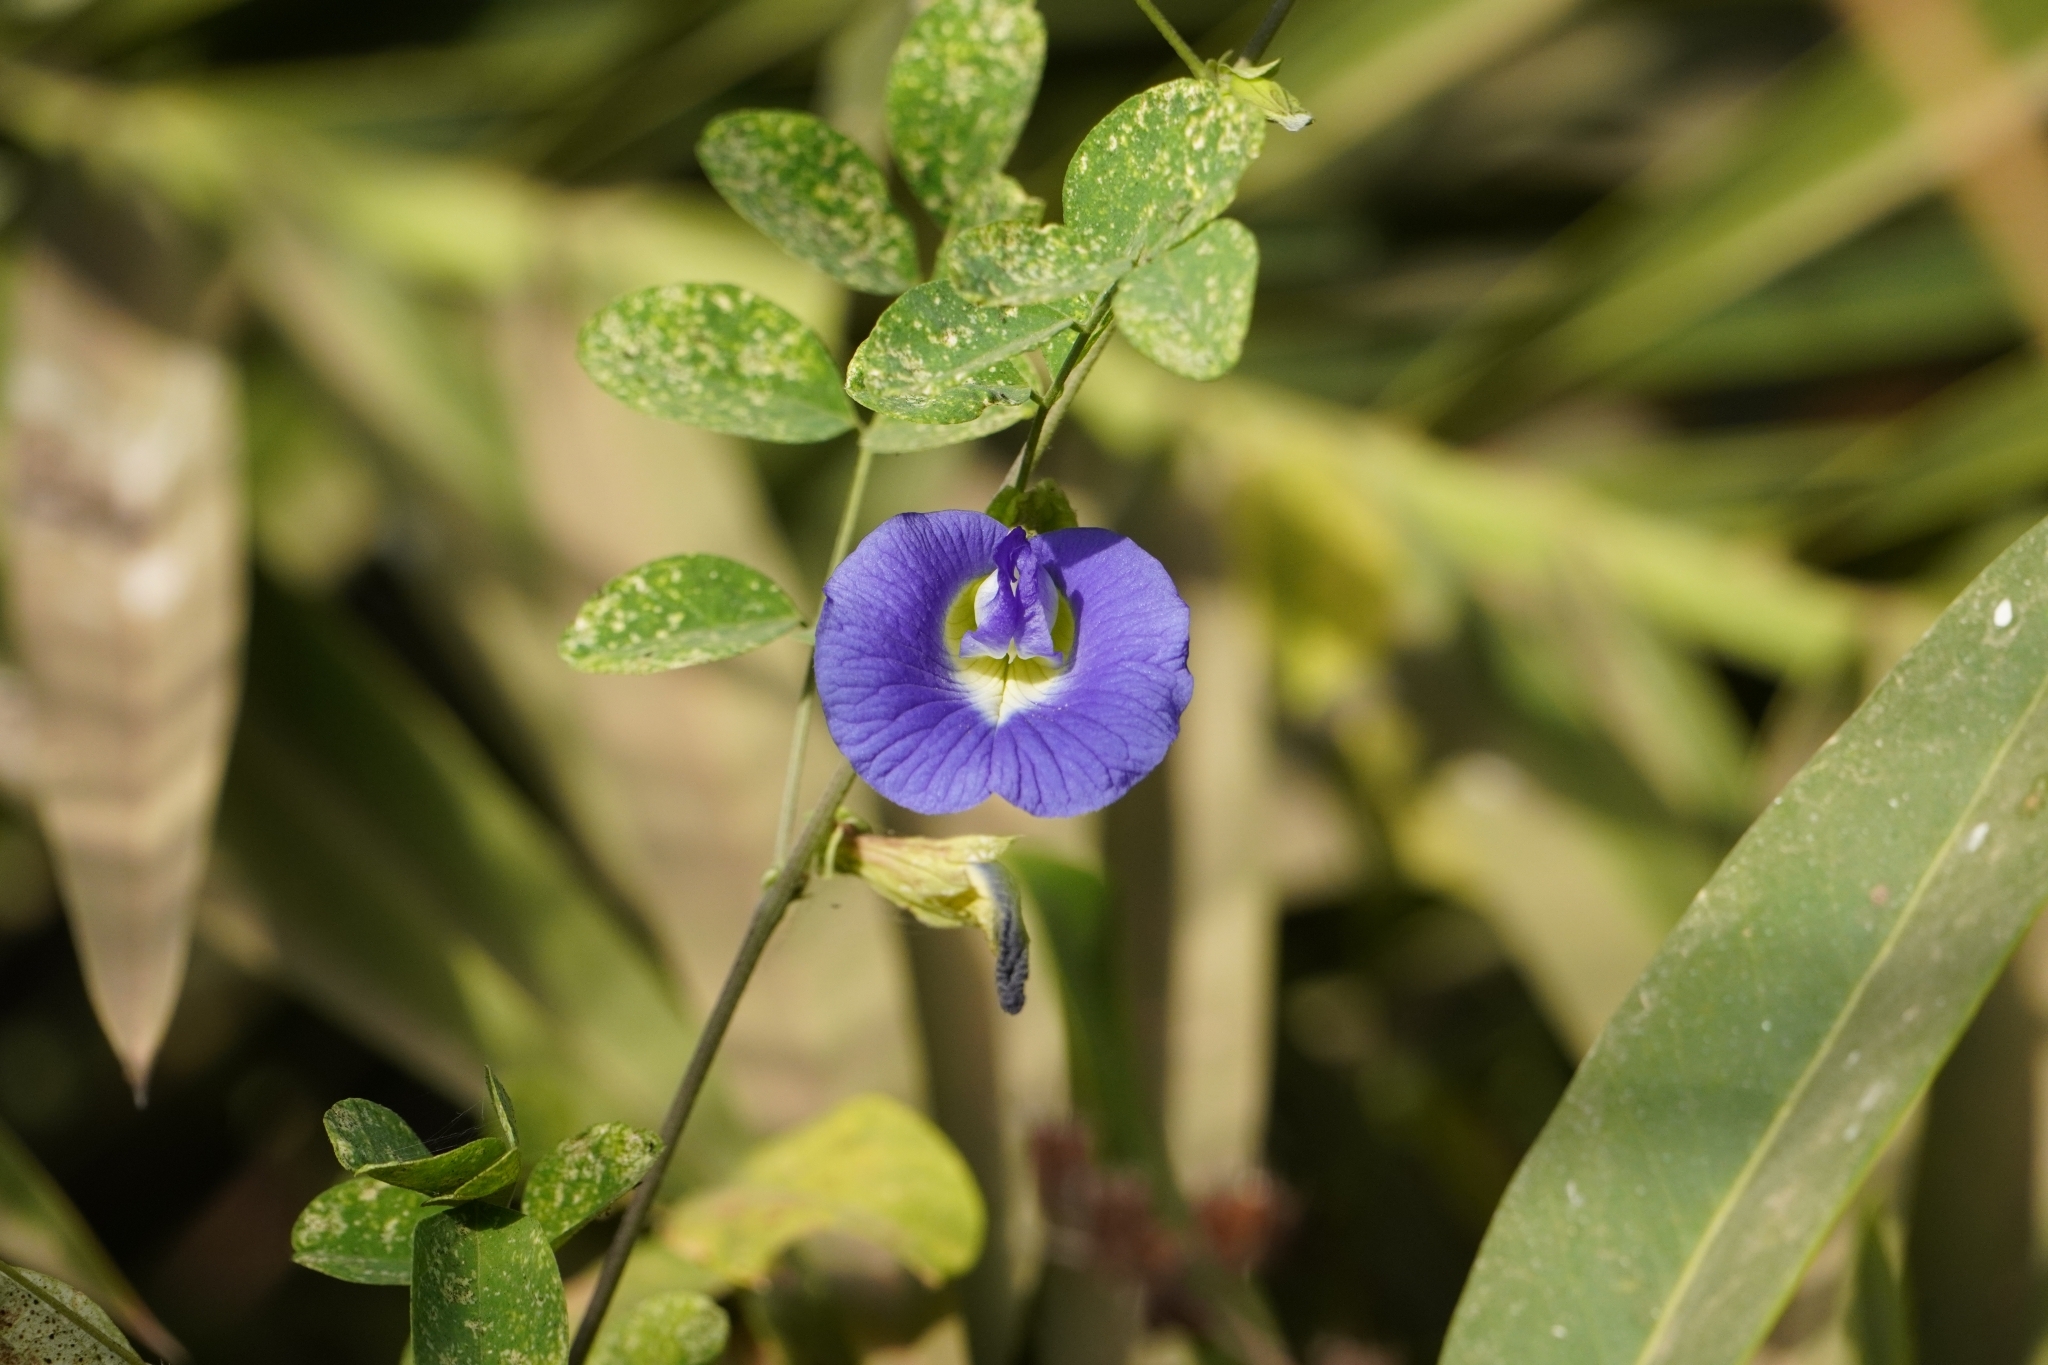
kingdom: Plantae
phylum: Tracheophyta
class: Magnoliopsida
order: Fabales
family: Fabaceae
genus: Clitoria
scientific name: Clitoria ternatea
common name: Asian pigeonwings
